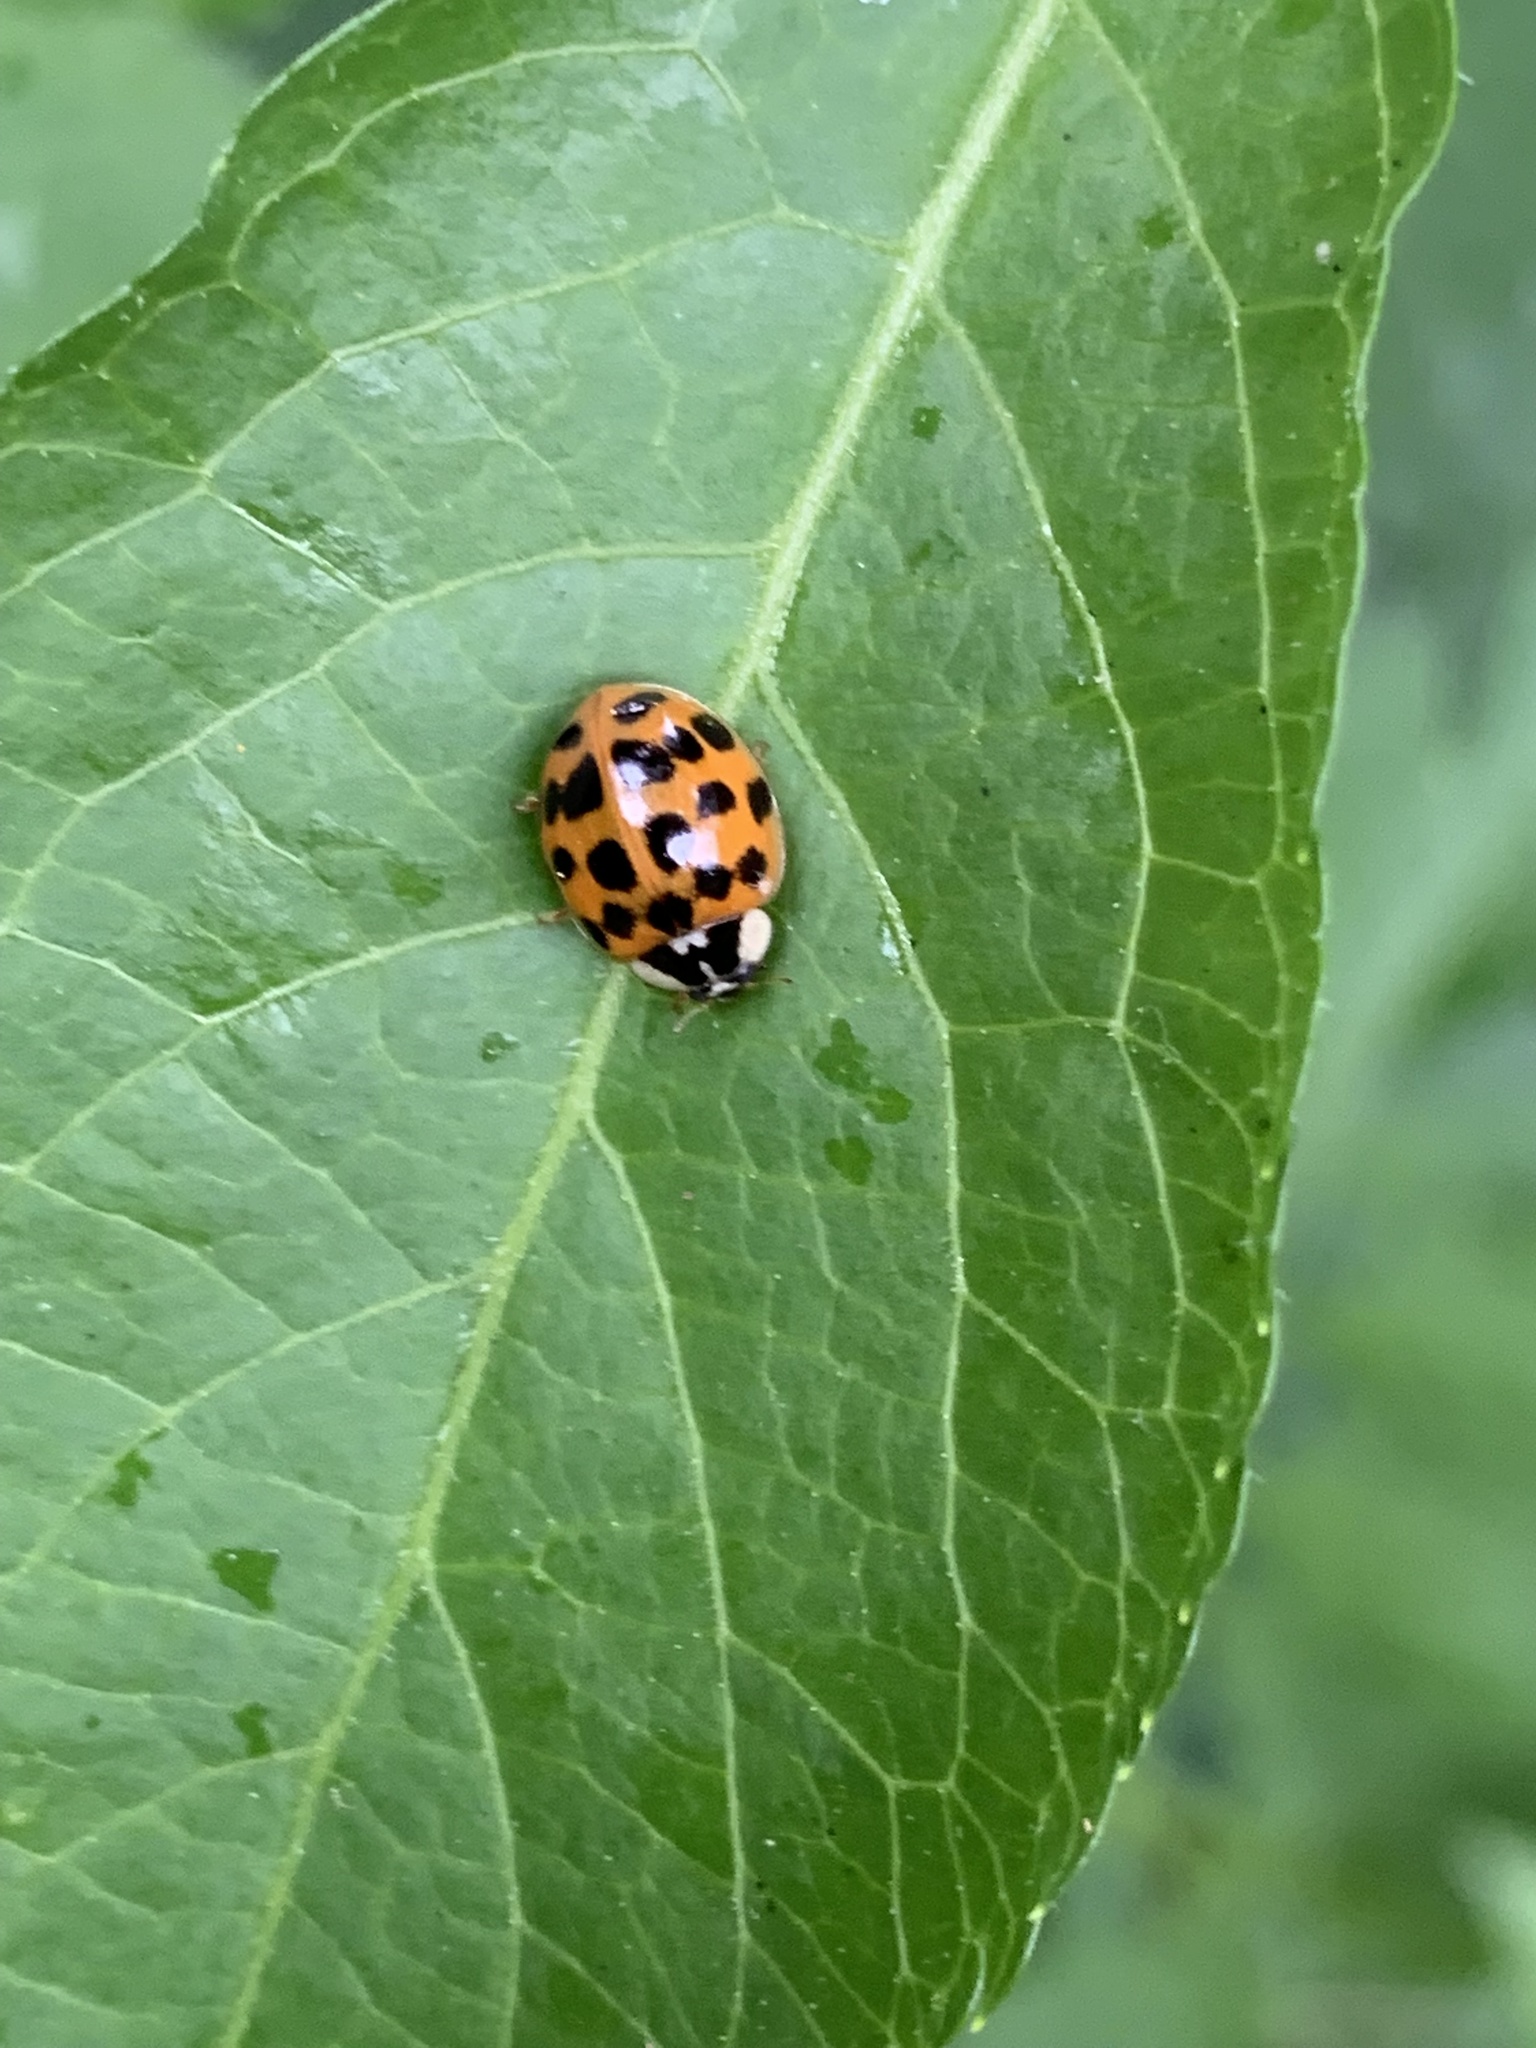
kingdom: Animalia
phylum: Arthropoda
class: Insecta
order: Coleoptera
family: Coccinellidae
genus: Harmonia
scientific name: Harmonia axyridis
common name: Harlequin ladybird
